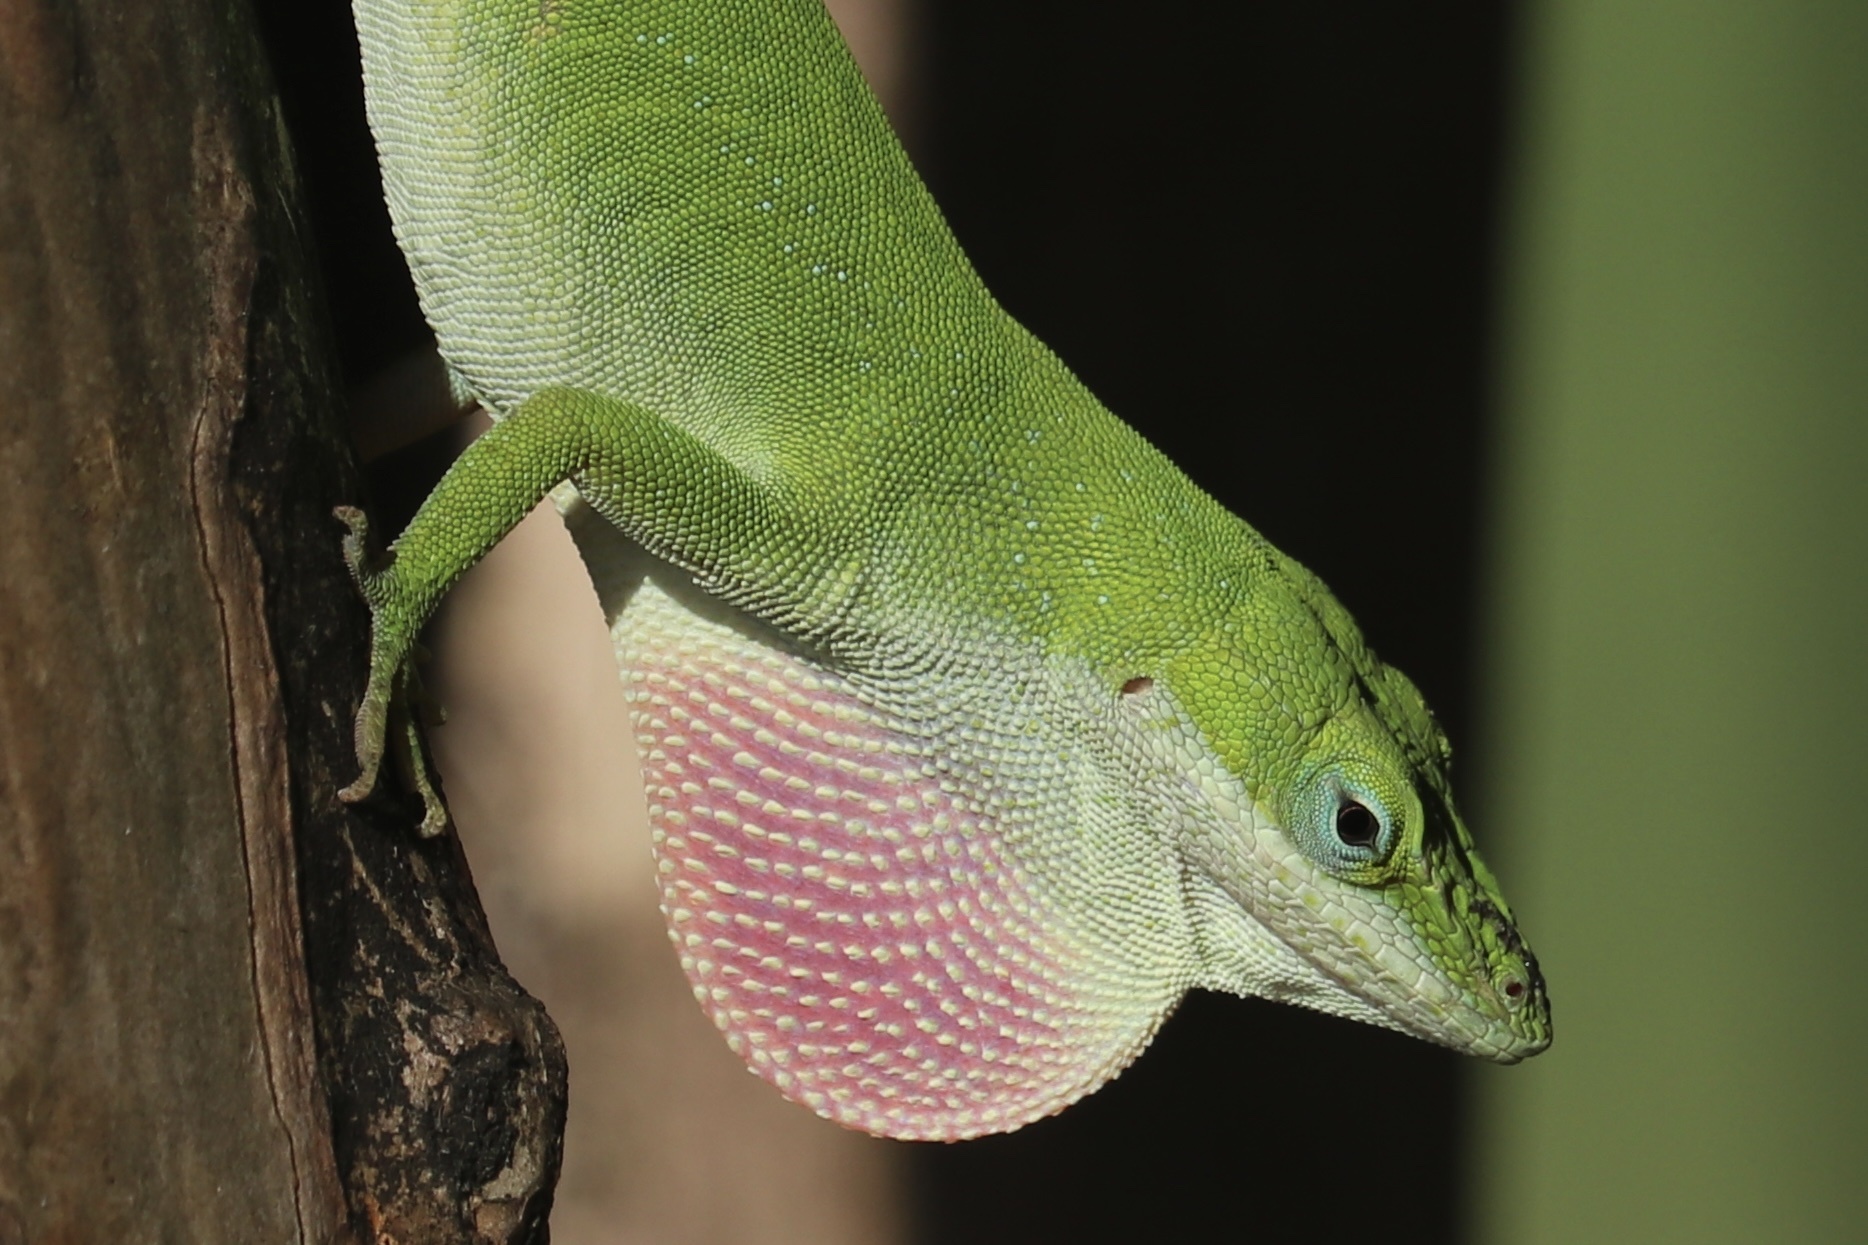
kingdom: Animalia
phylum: Chordata
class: Squamata
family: Dactyloidae
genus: Anolis
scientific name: Anolis carolinensis
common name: Green anole
